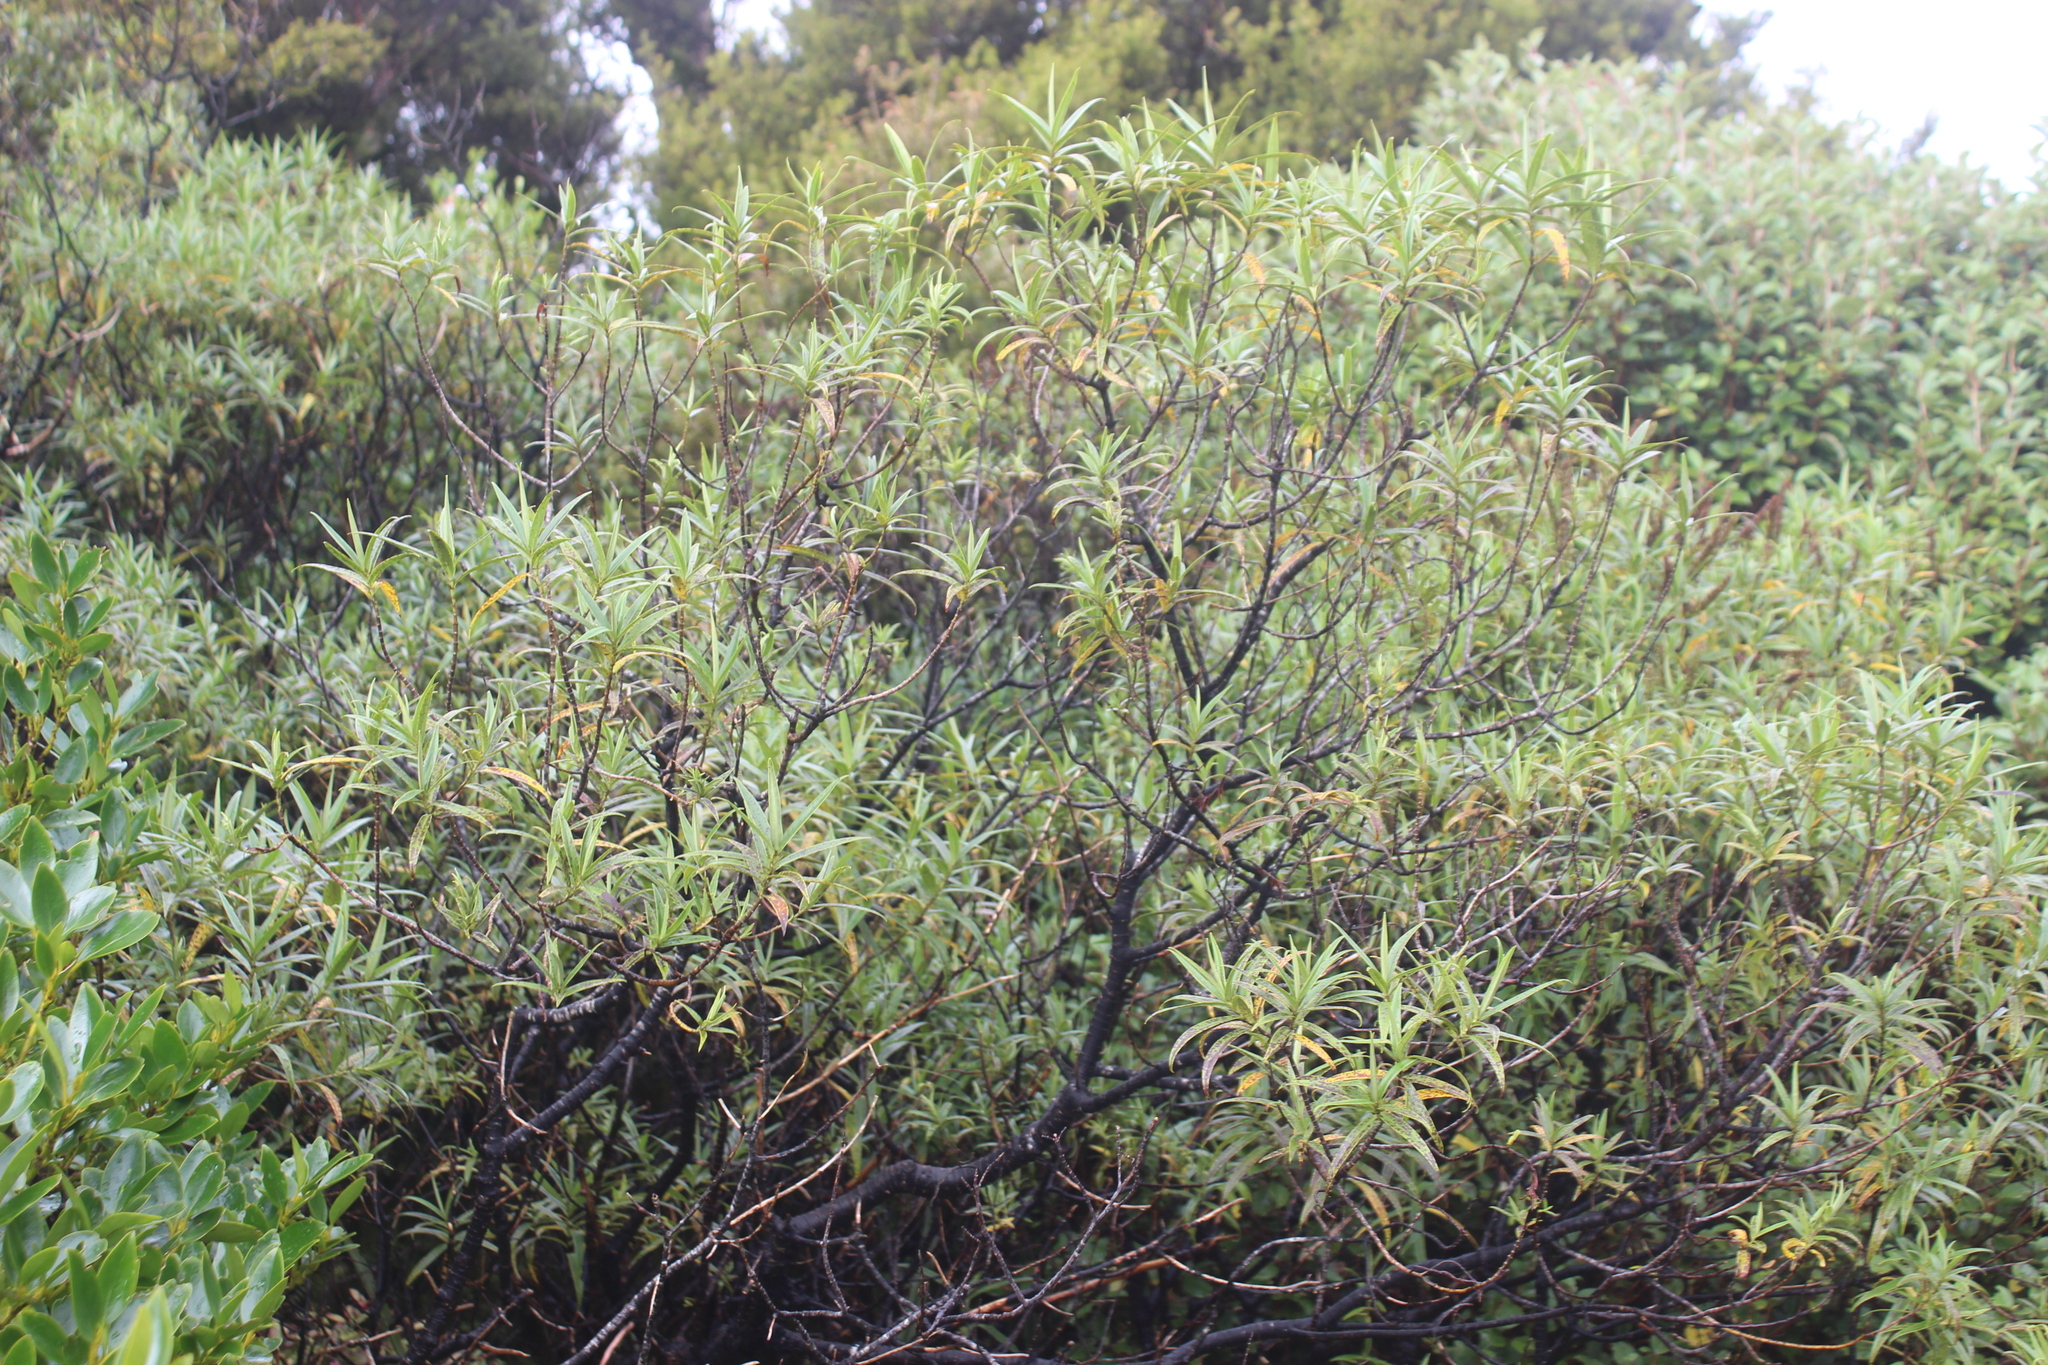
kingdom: Plantae
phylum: Tracheophyta
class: Magnoliopsida
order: Lamiales
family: Plantaginaceae
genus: Veronica
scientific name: Veronica stricta
